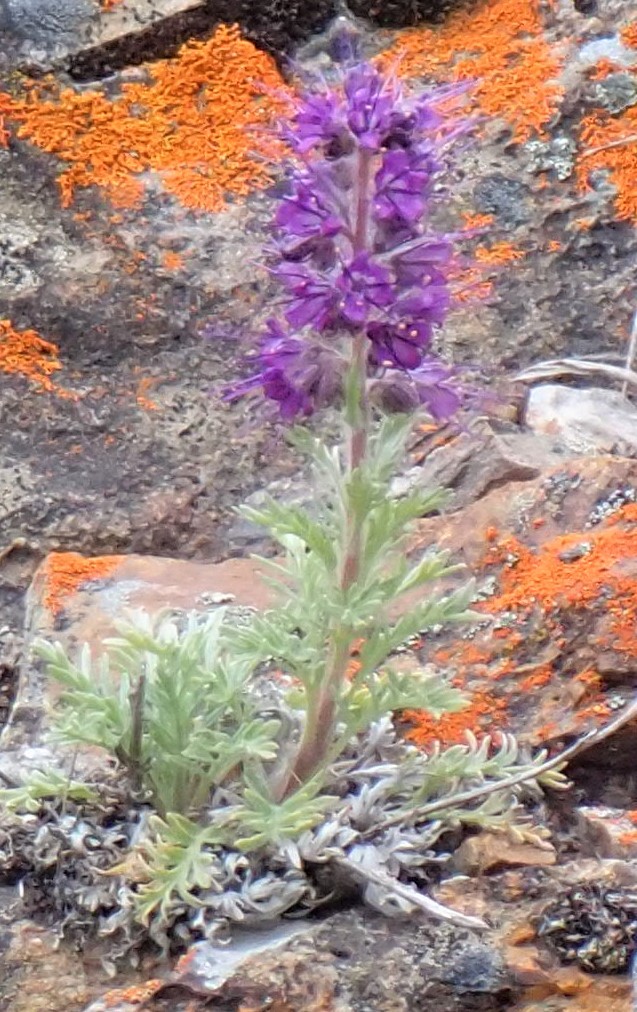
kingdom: Plantae
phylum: Tracheophyta
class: Magnoliopsida
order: Boraginales
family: Hydrophyllaceae
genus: Phacelia
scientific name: Phacelia sericea
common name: Silky phacelia
